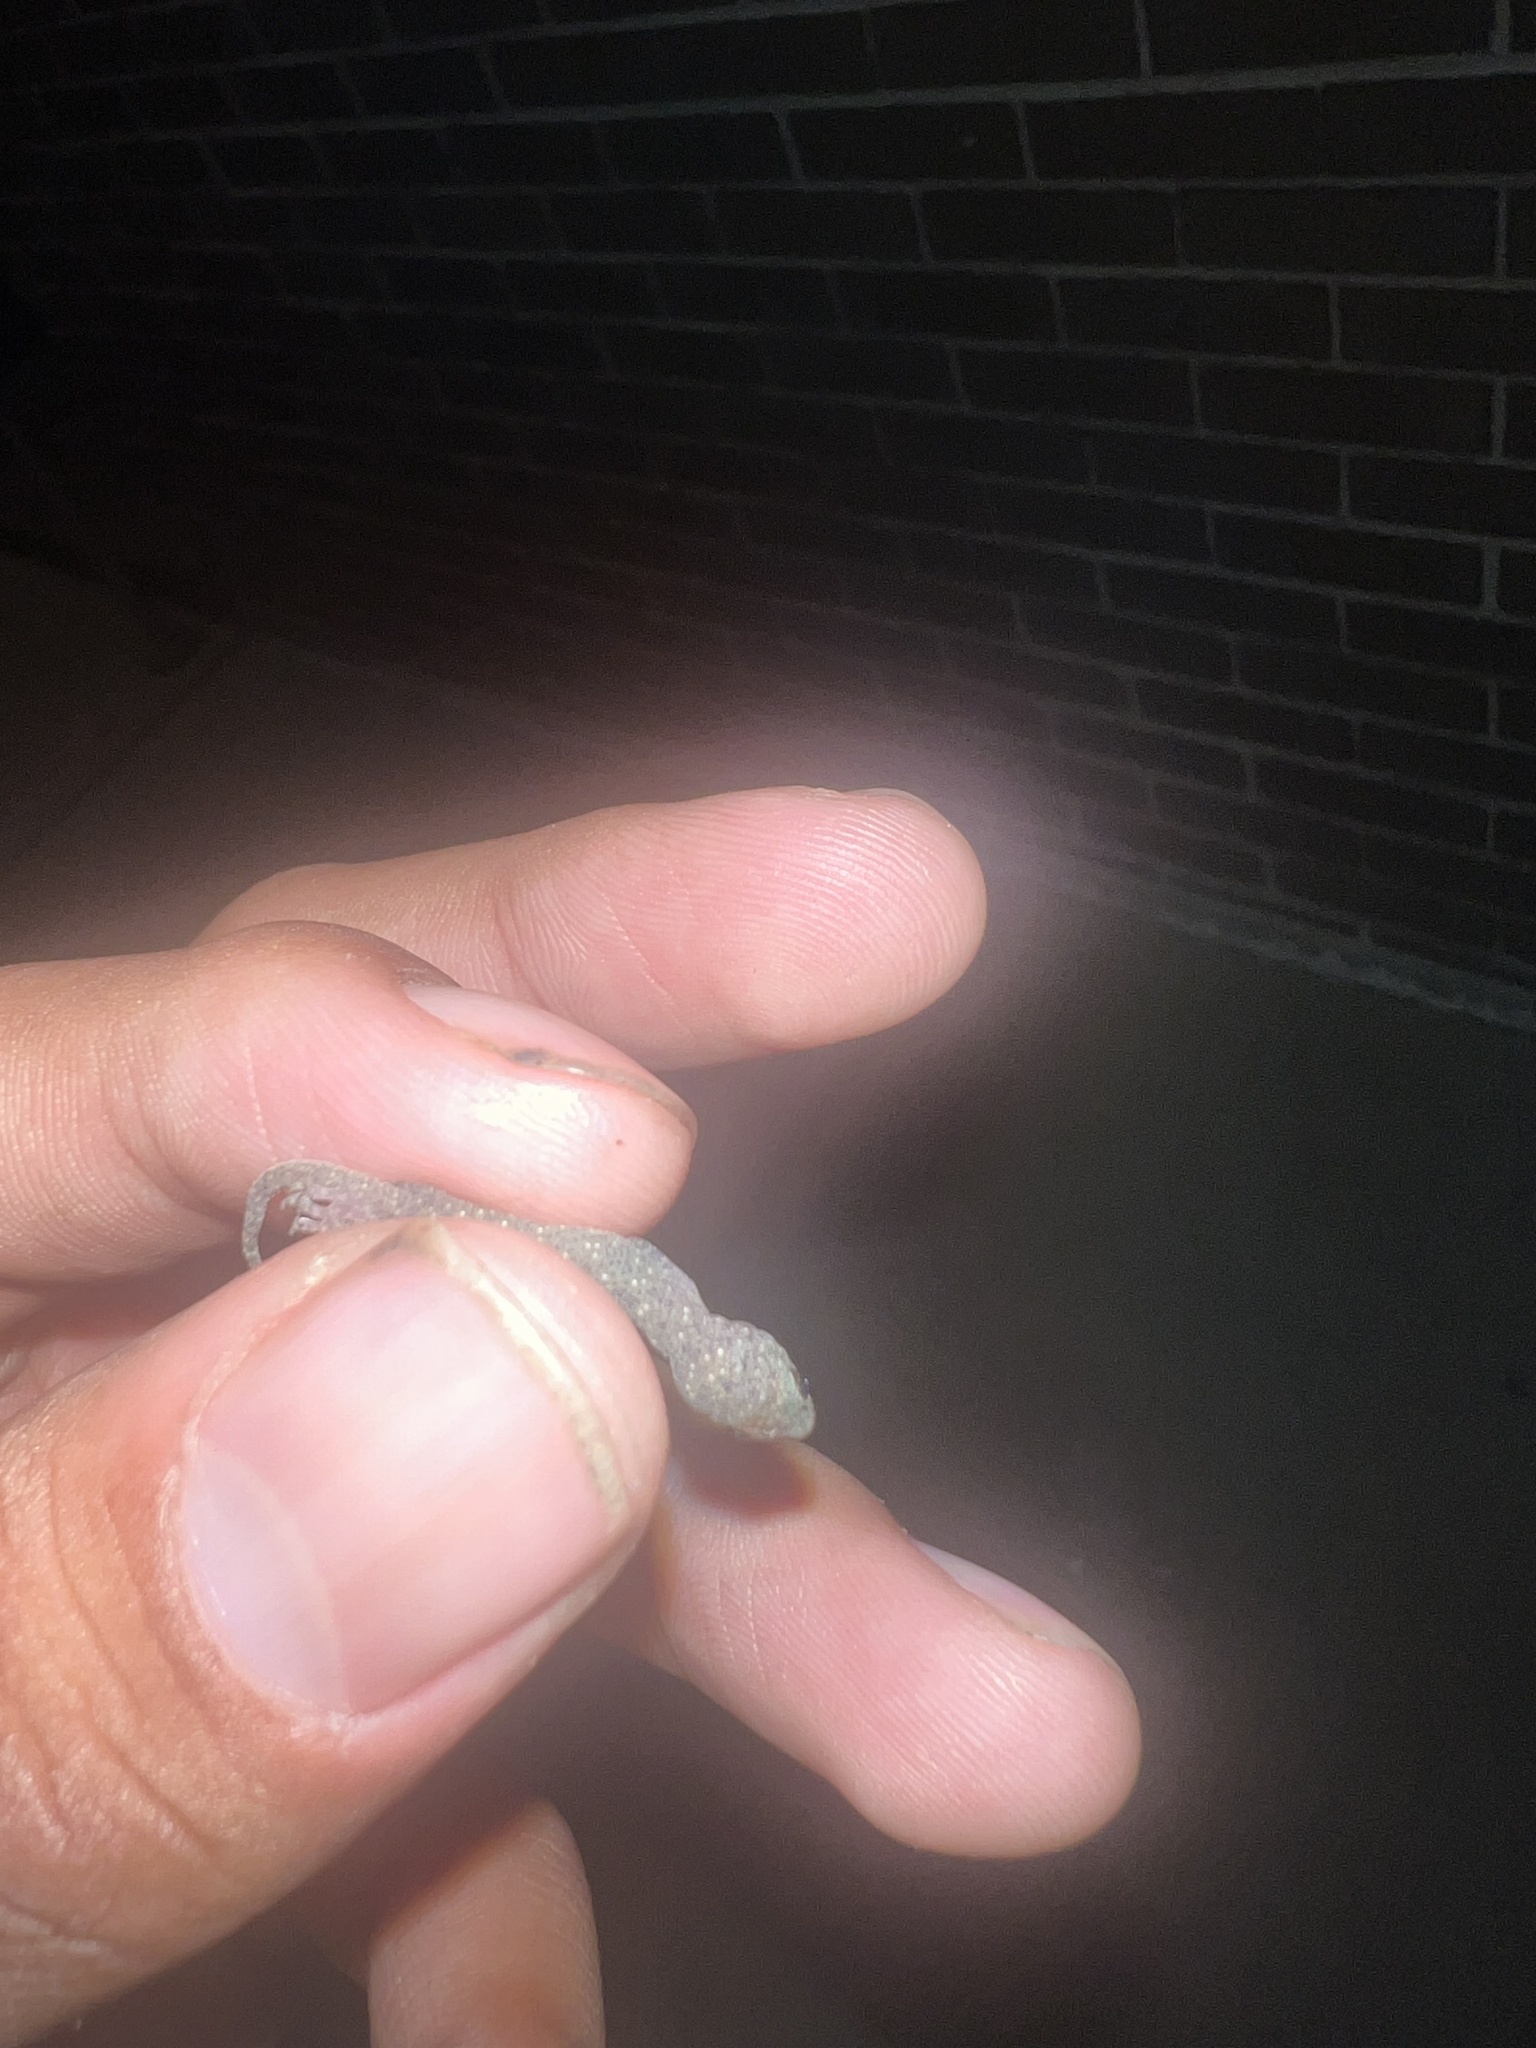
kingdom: Animalia
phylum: Chordata
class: Squamata
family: Gekkonidae
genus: Hemidactylus
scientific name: Hemidactylus parvimaculatus
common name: Spotted house gecko
